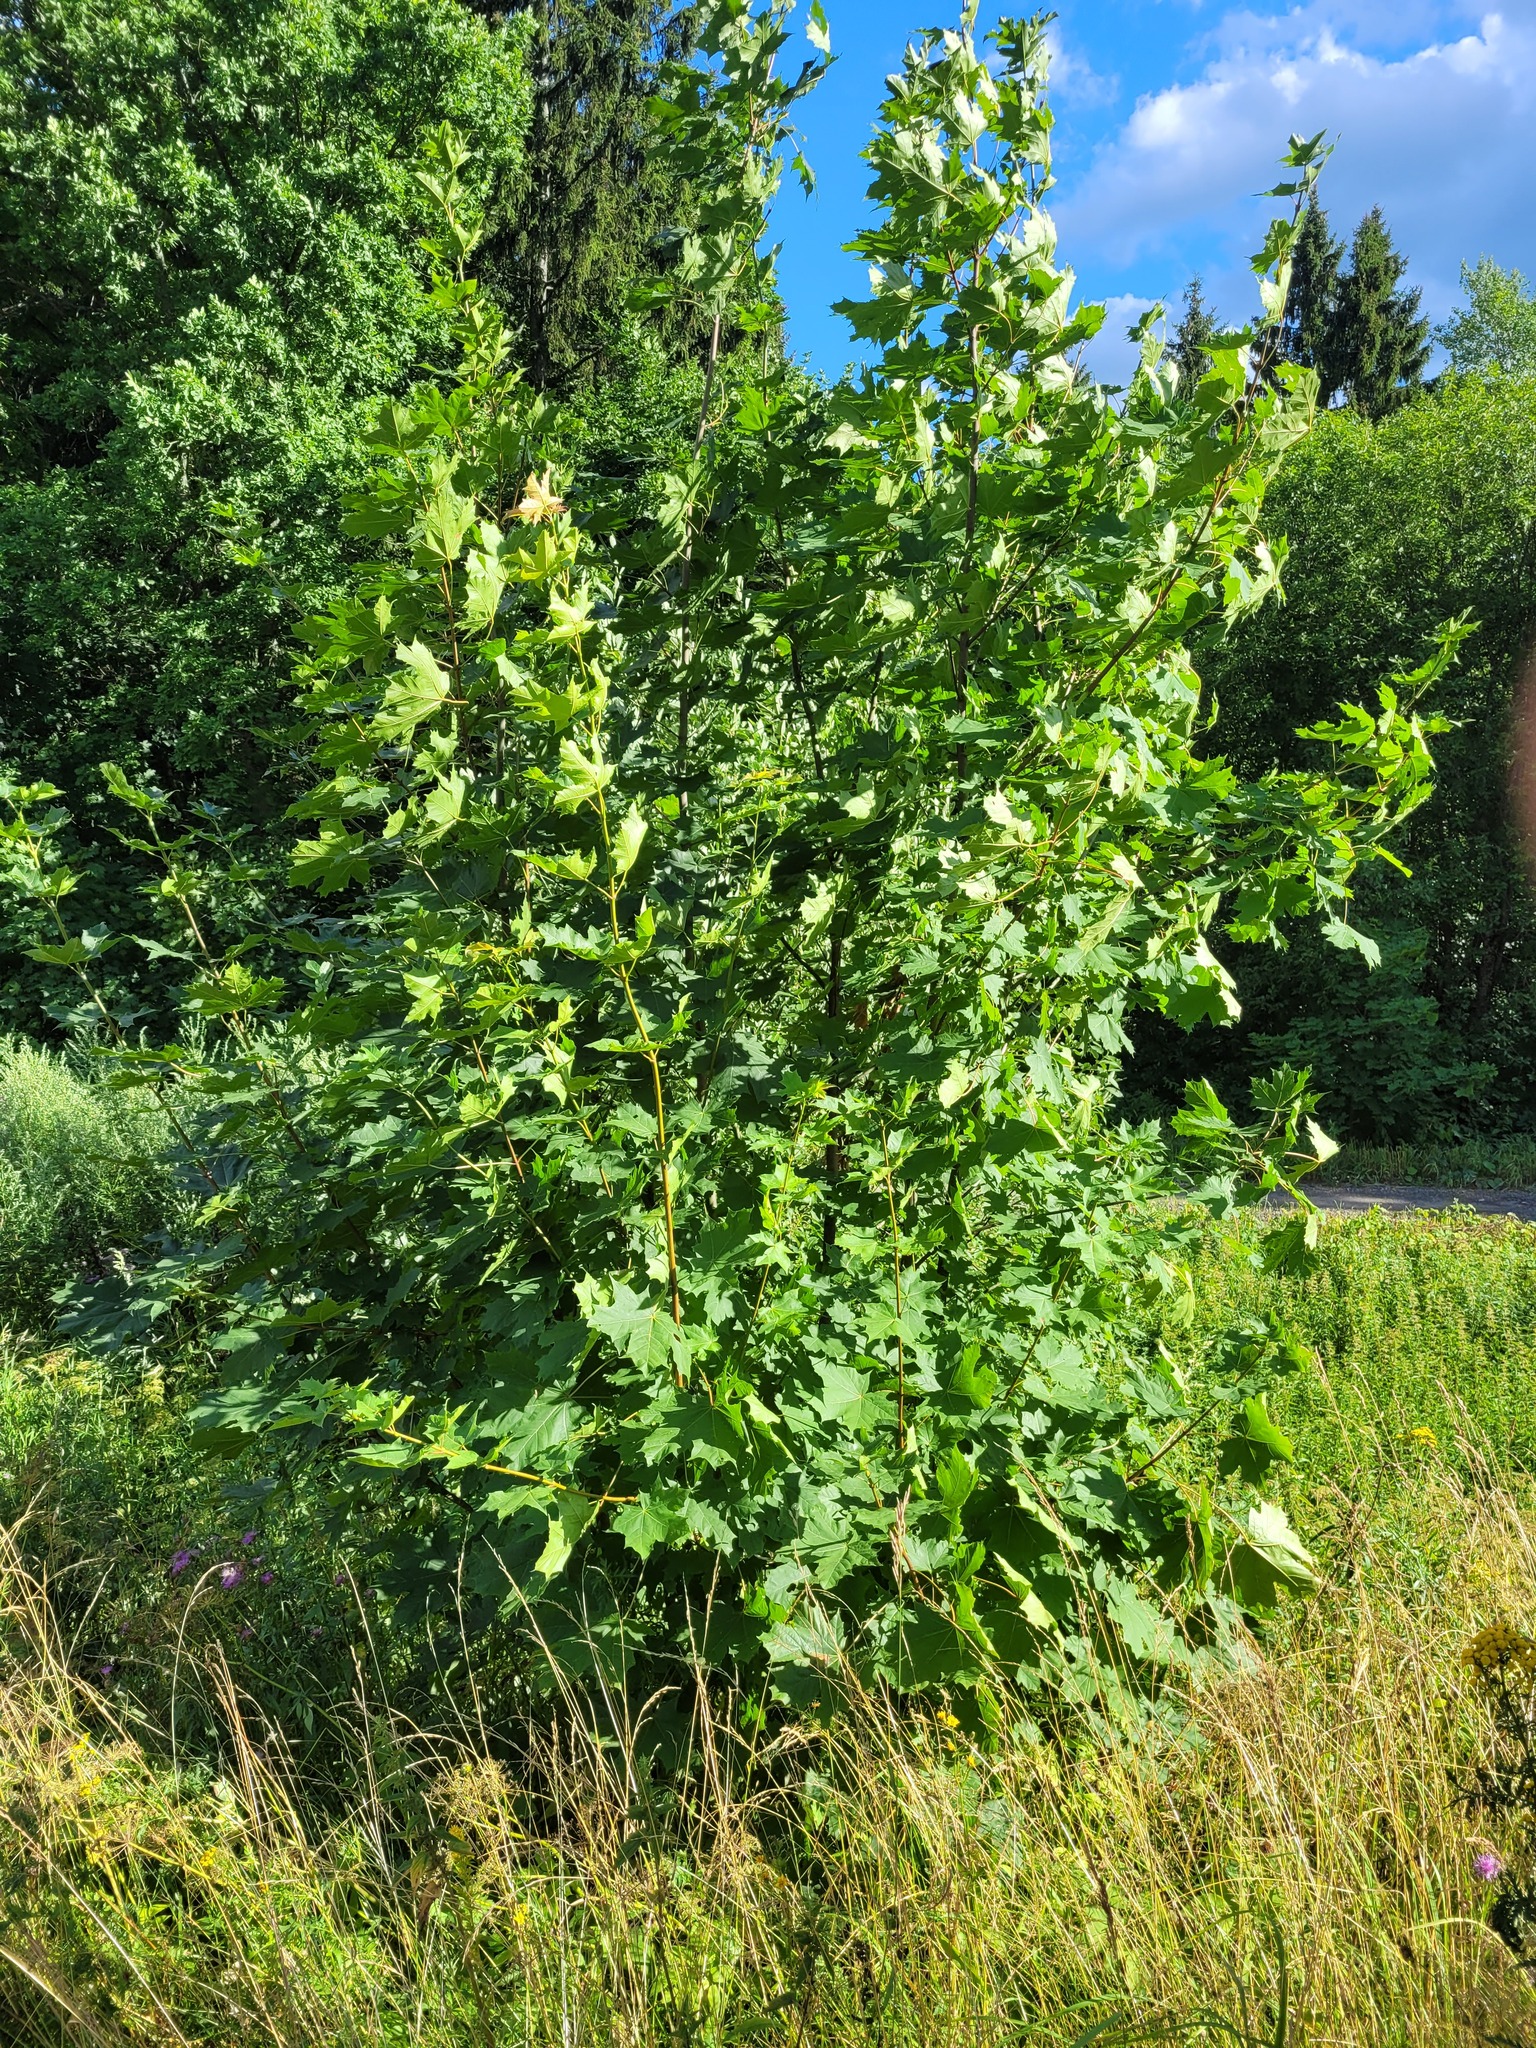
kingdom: Plantae
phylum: Tracheophyta
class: Magnoliopsida
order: Sapindales
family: Sapindaceae
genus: Acer
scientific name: Acer platanoides
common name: Norway maple
